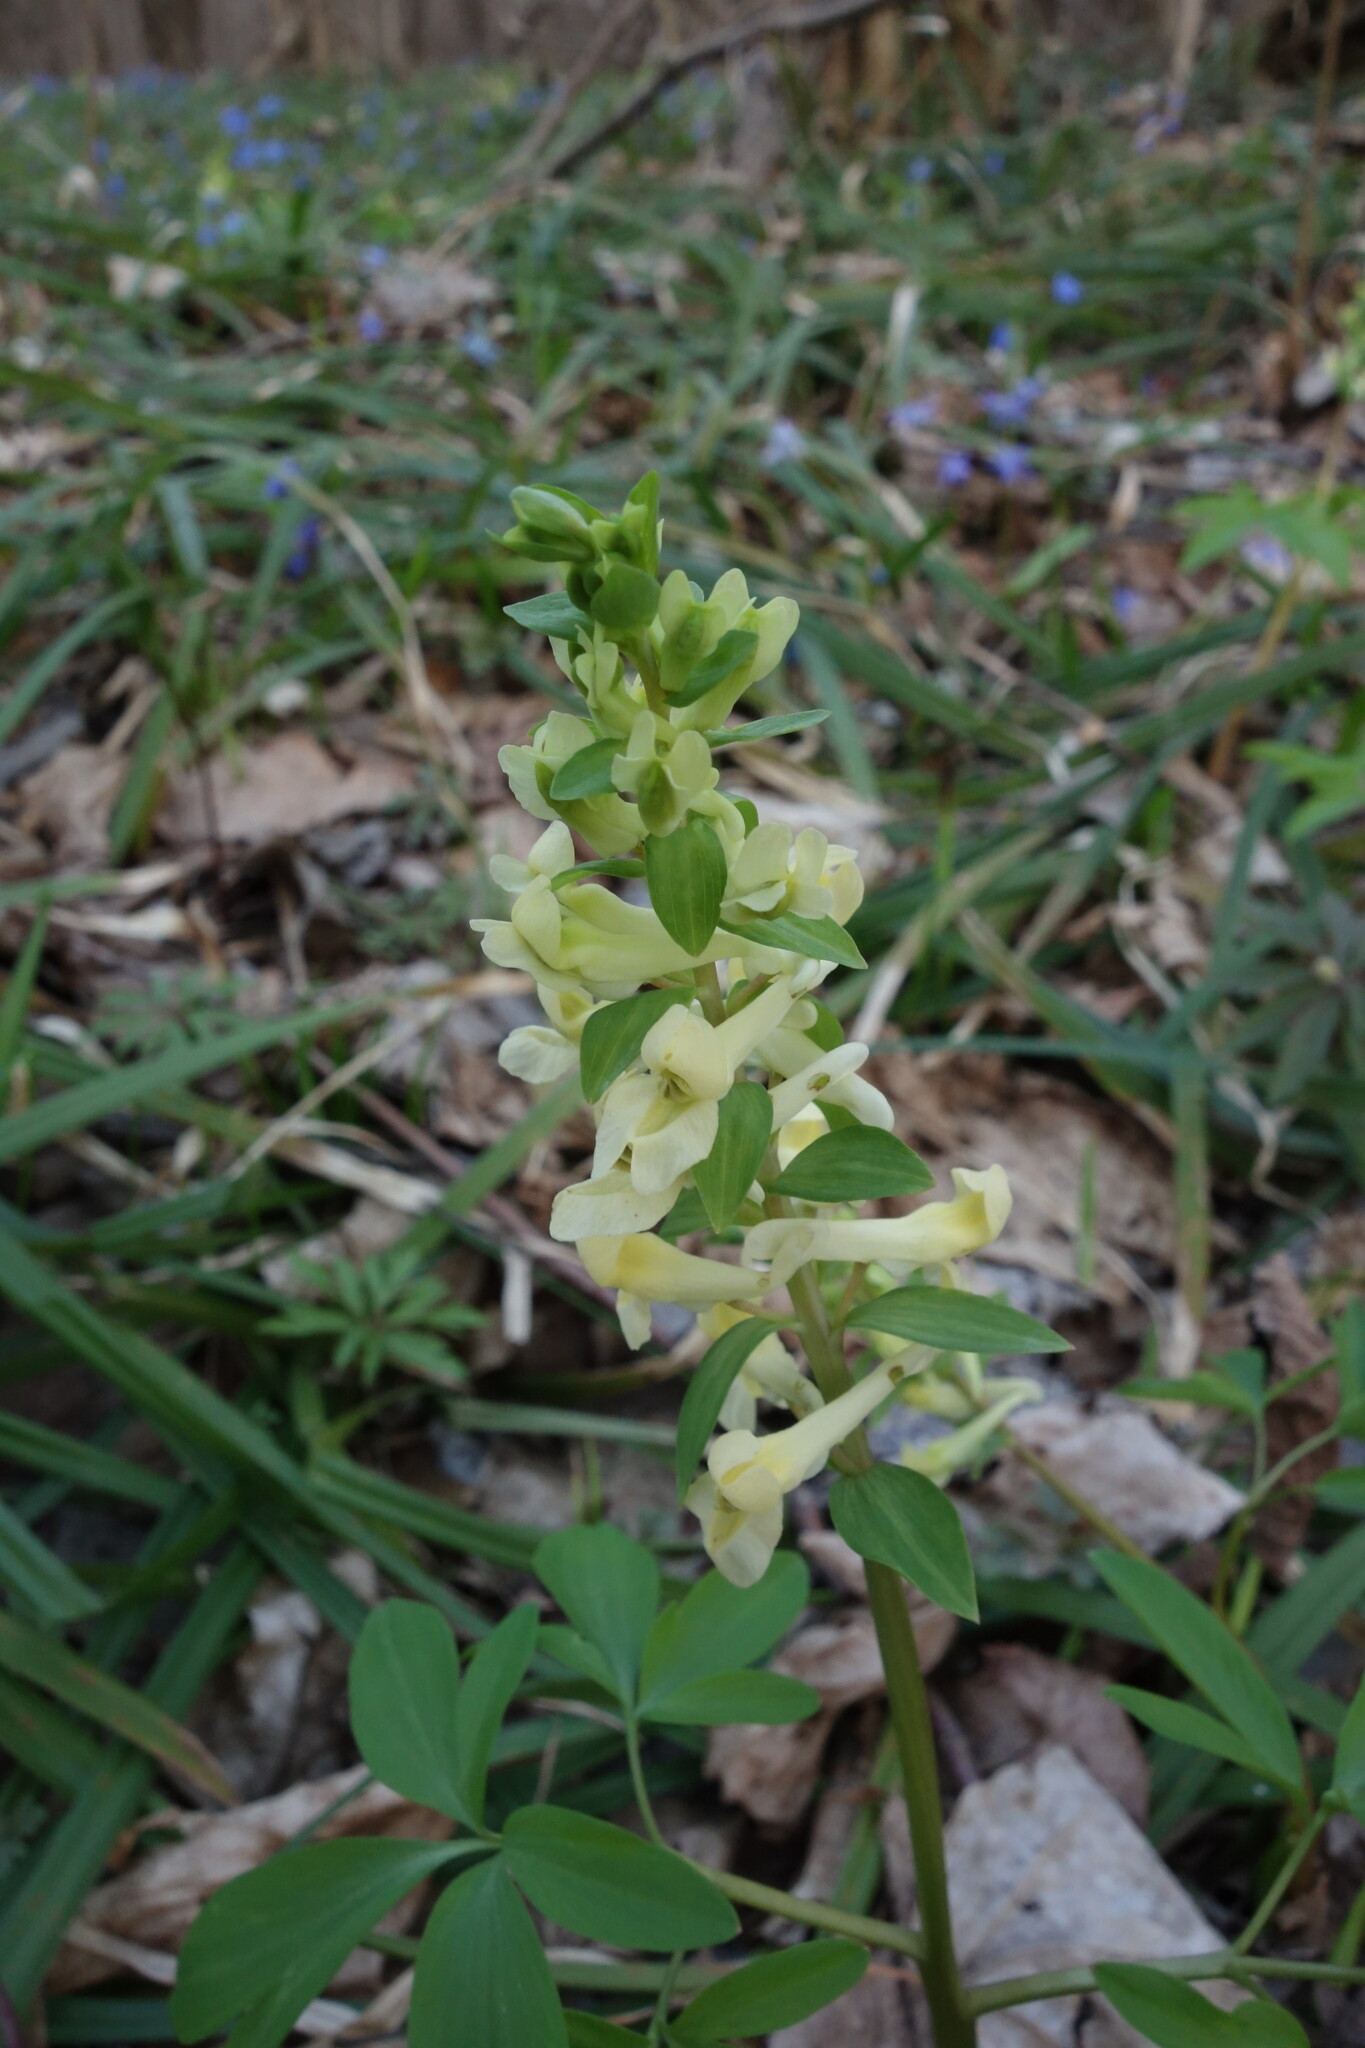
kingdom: Plantae
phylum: Tracheophyta
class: Magnoliopsida
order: Ranunculales
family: Papaveraceae
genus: Corydalis
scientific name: Corydalis cava
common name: Hollowroot
